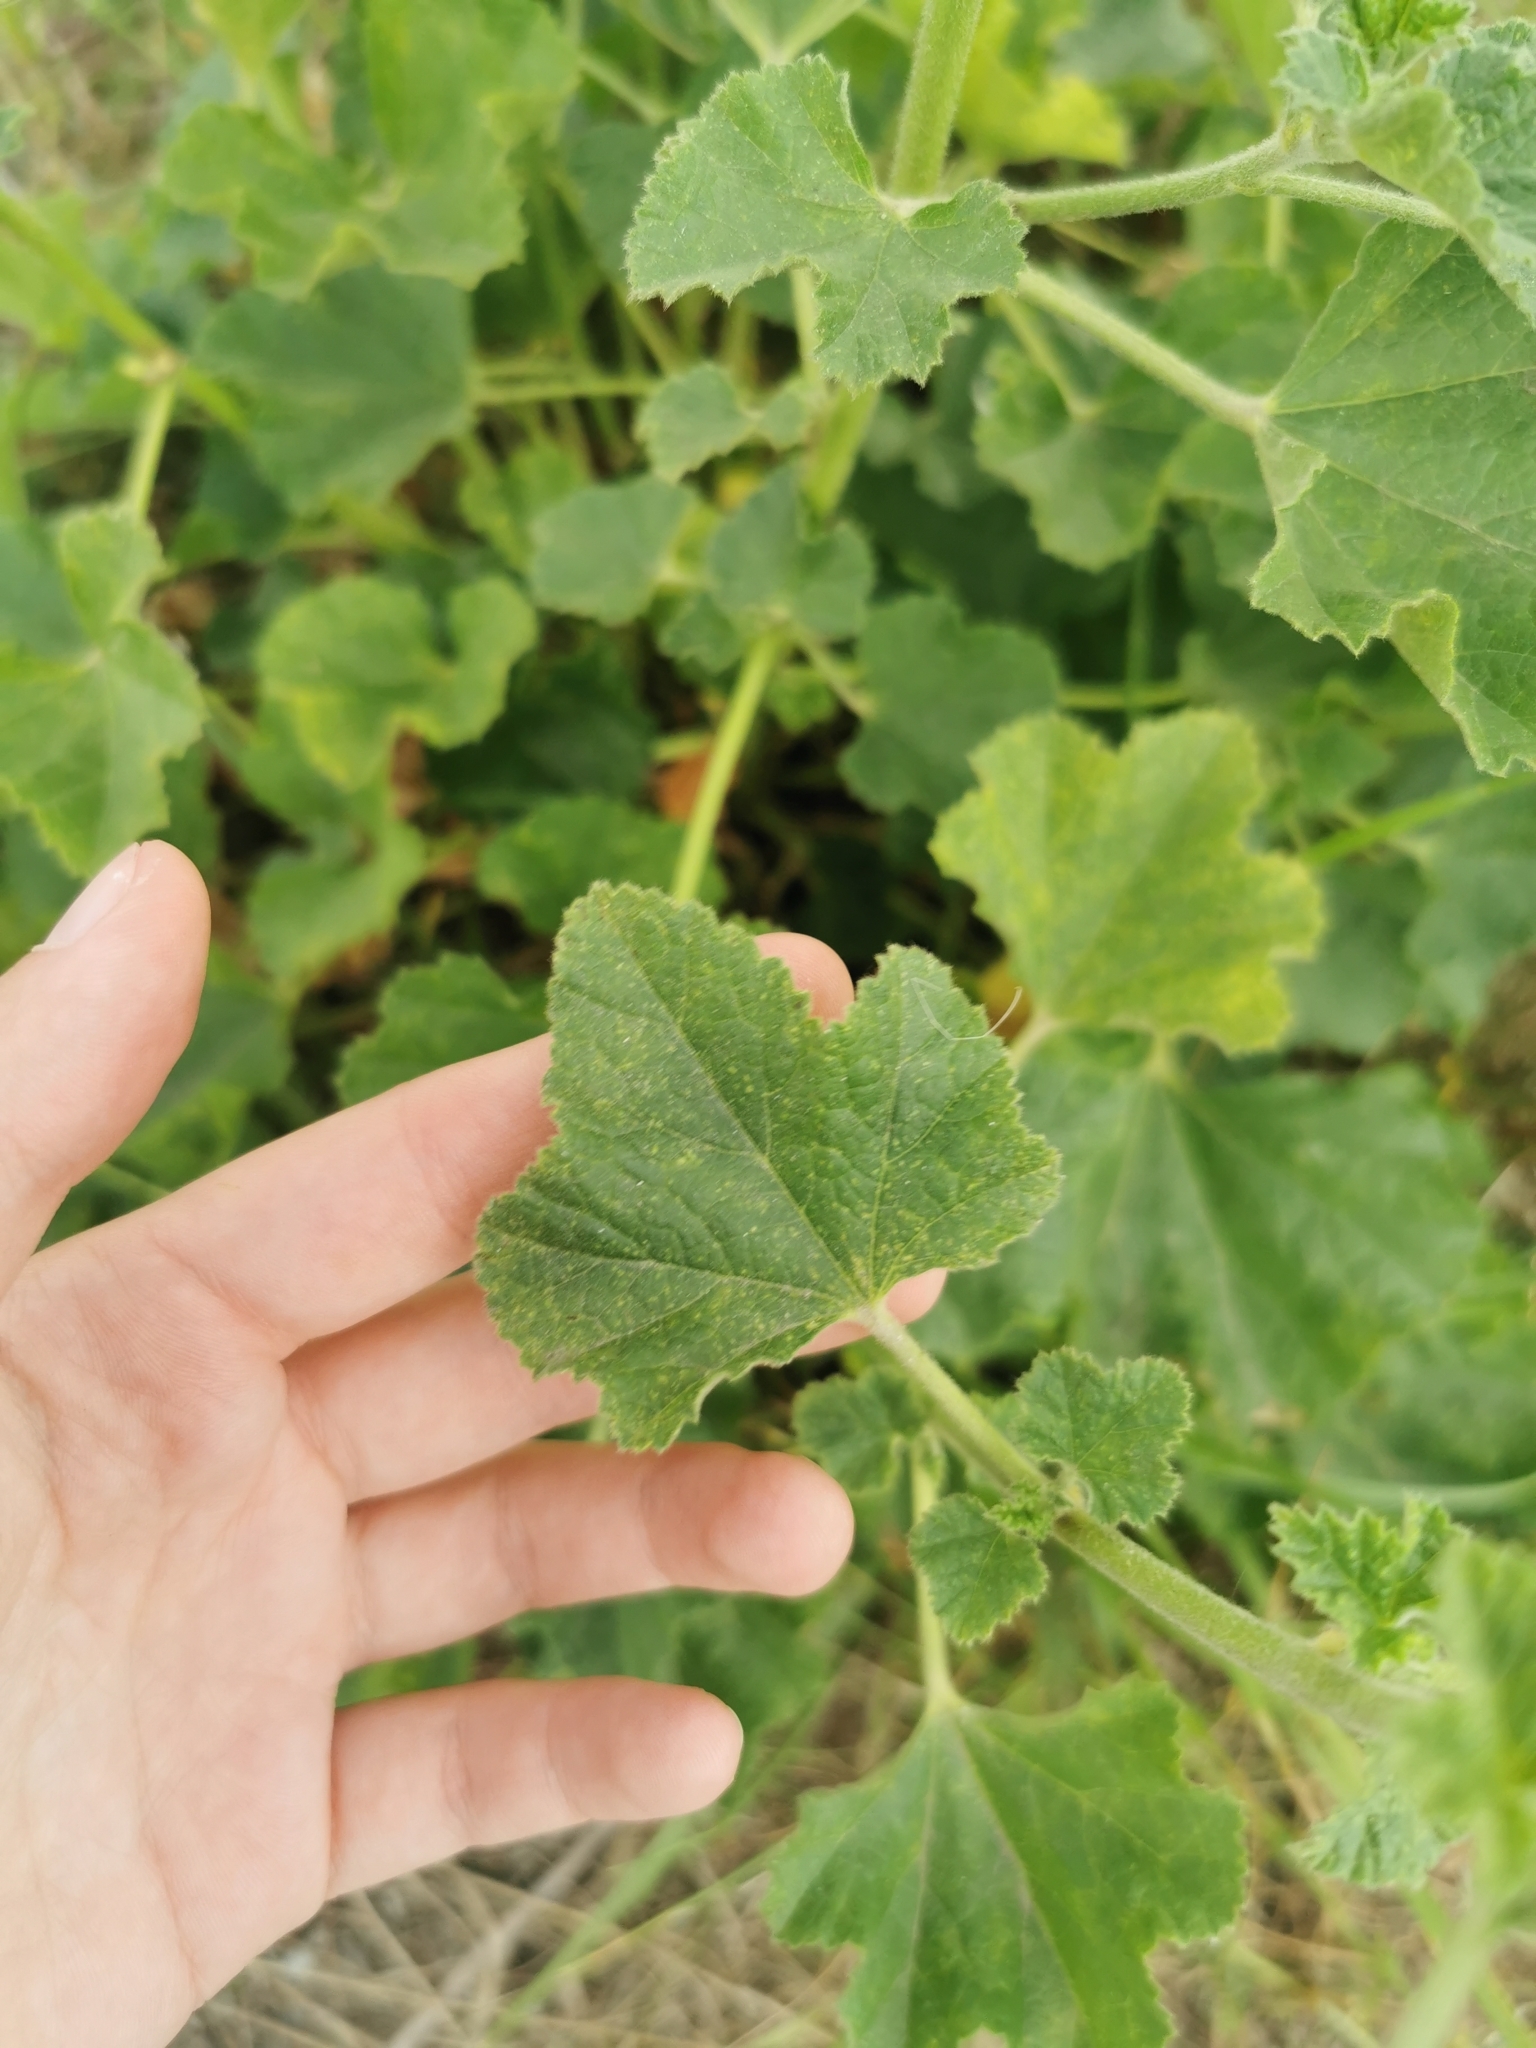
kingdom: Plantae
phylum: Tracheophyta
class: Magnoliopsida
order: Malvales
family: Malvaceae
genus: Malva
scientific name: Malva thuringiaca
